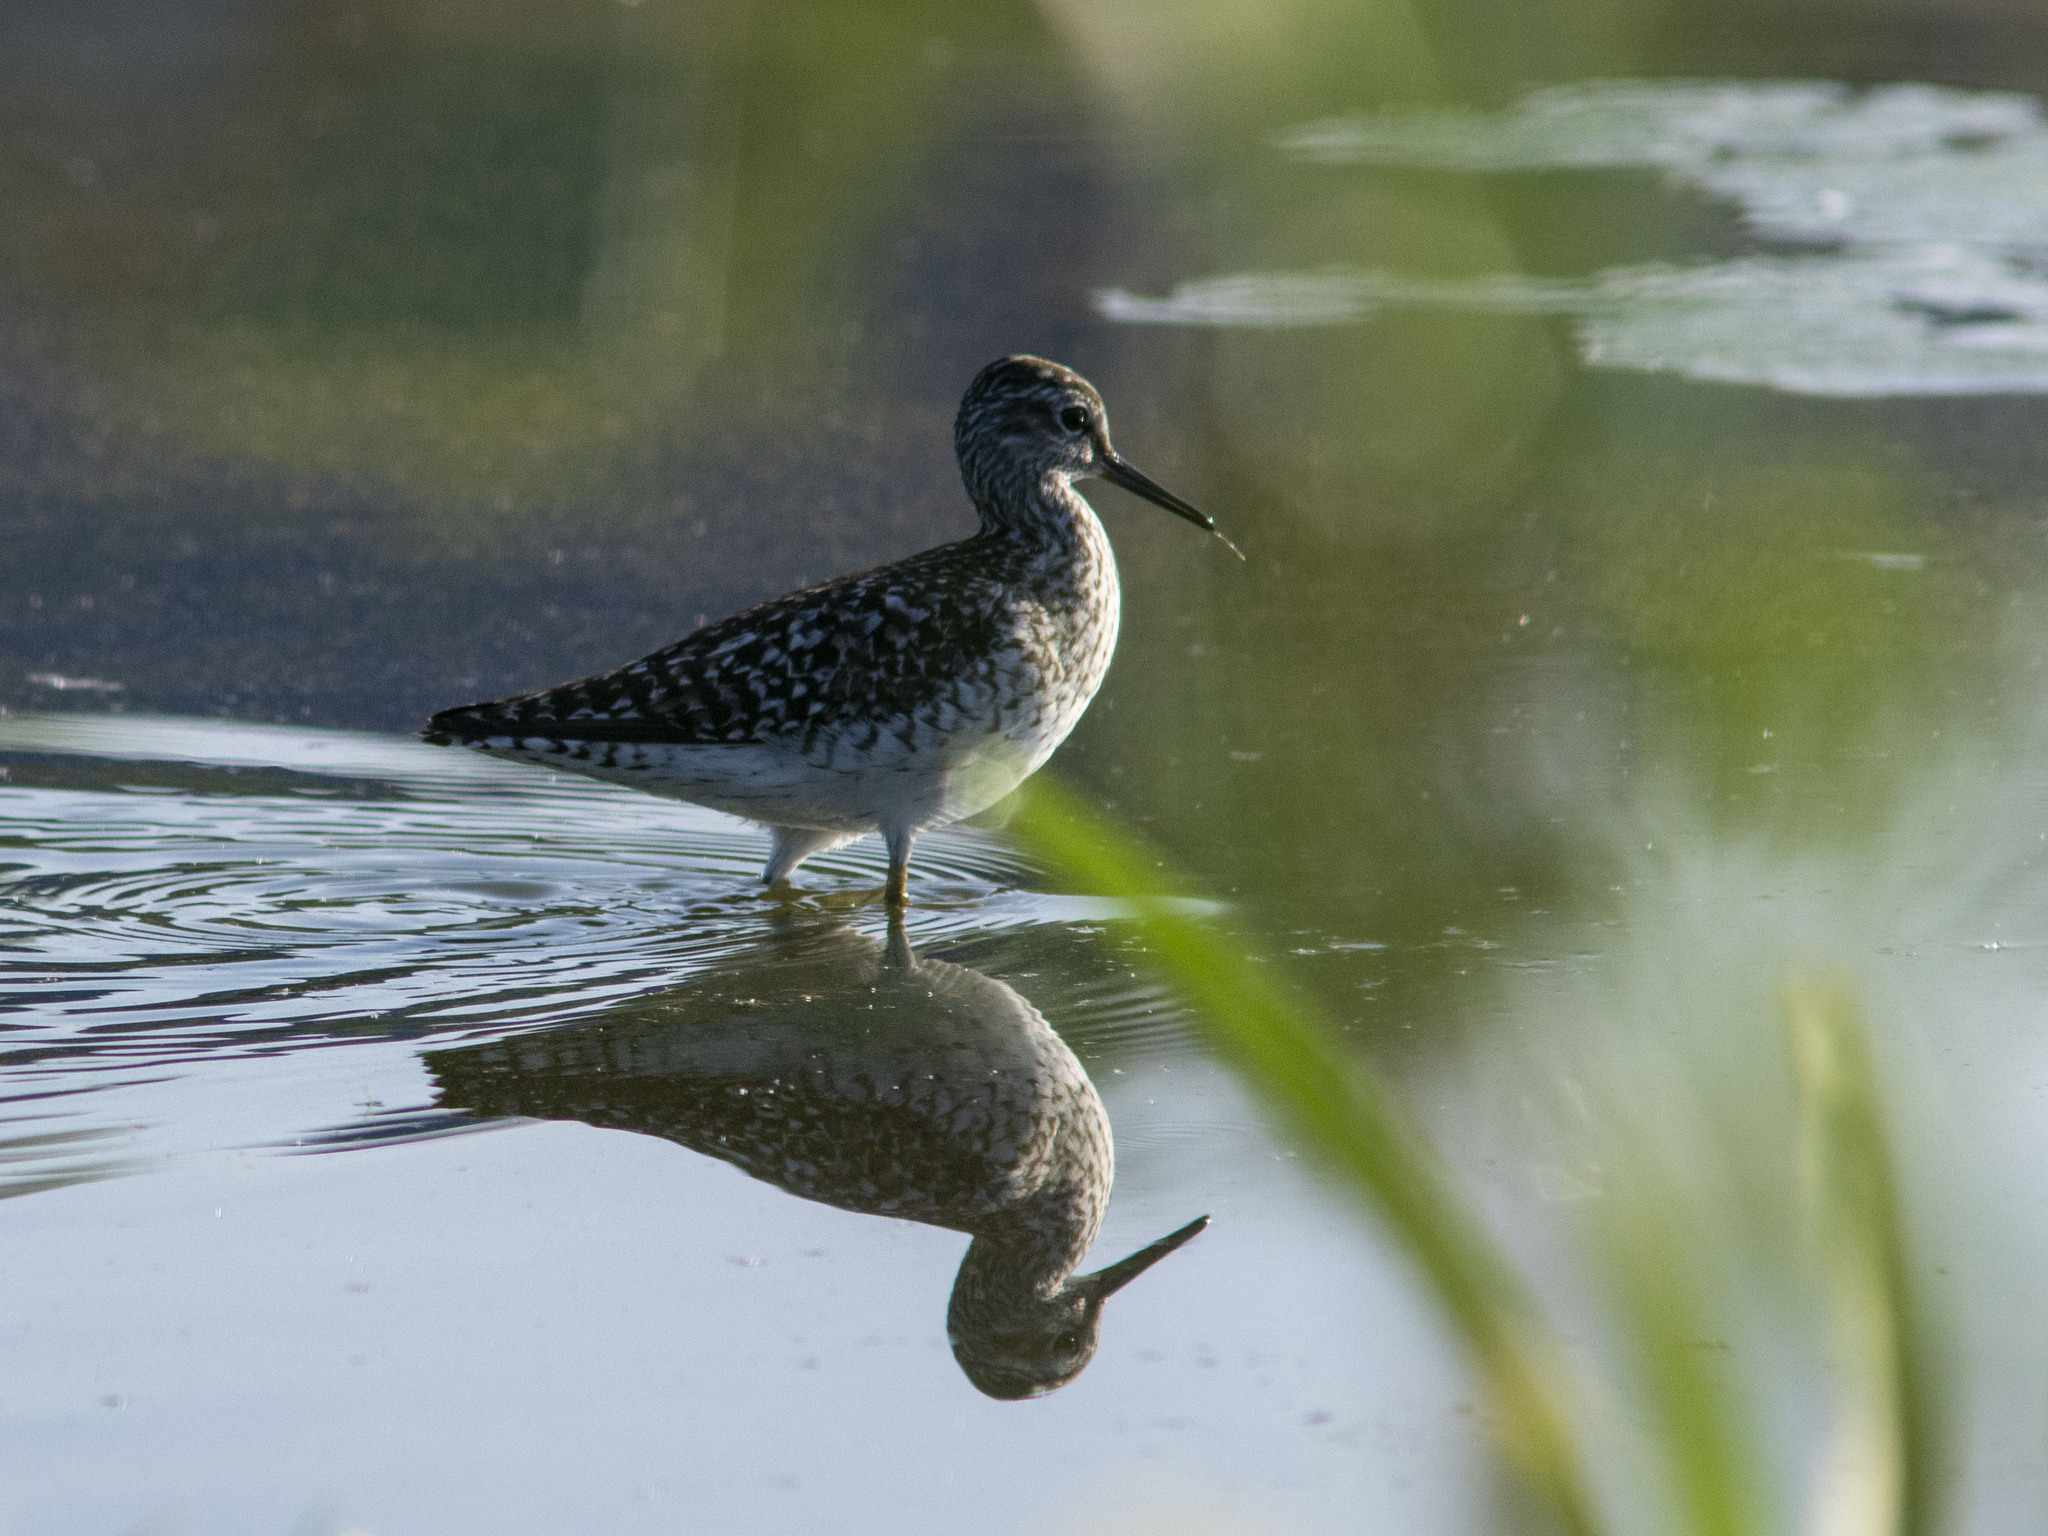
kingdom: Animalia
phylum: Chordata
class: Aves
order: Charadriiformes
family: Scolopacidae
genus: Tringa
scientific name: Tringa glareola
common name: Wood sandpiper
